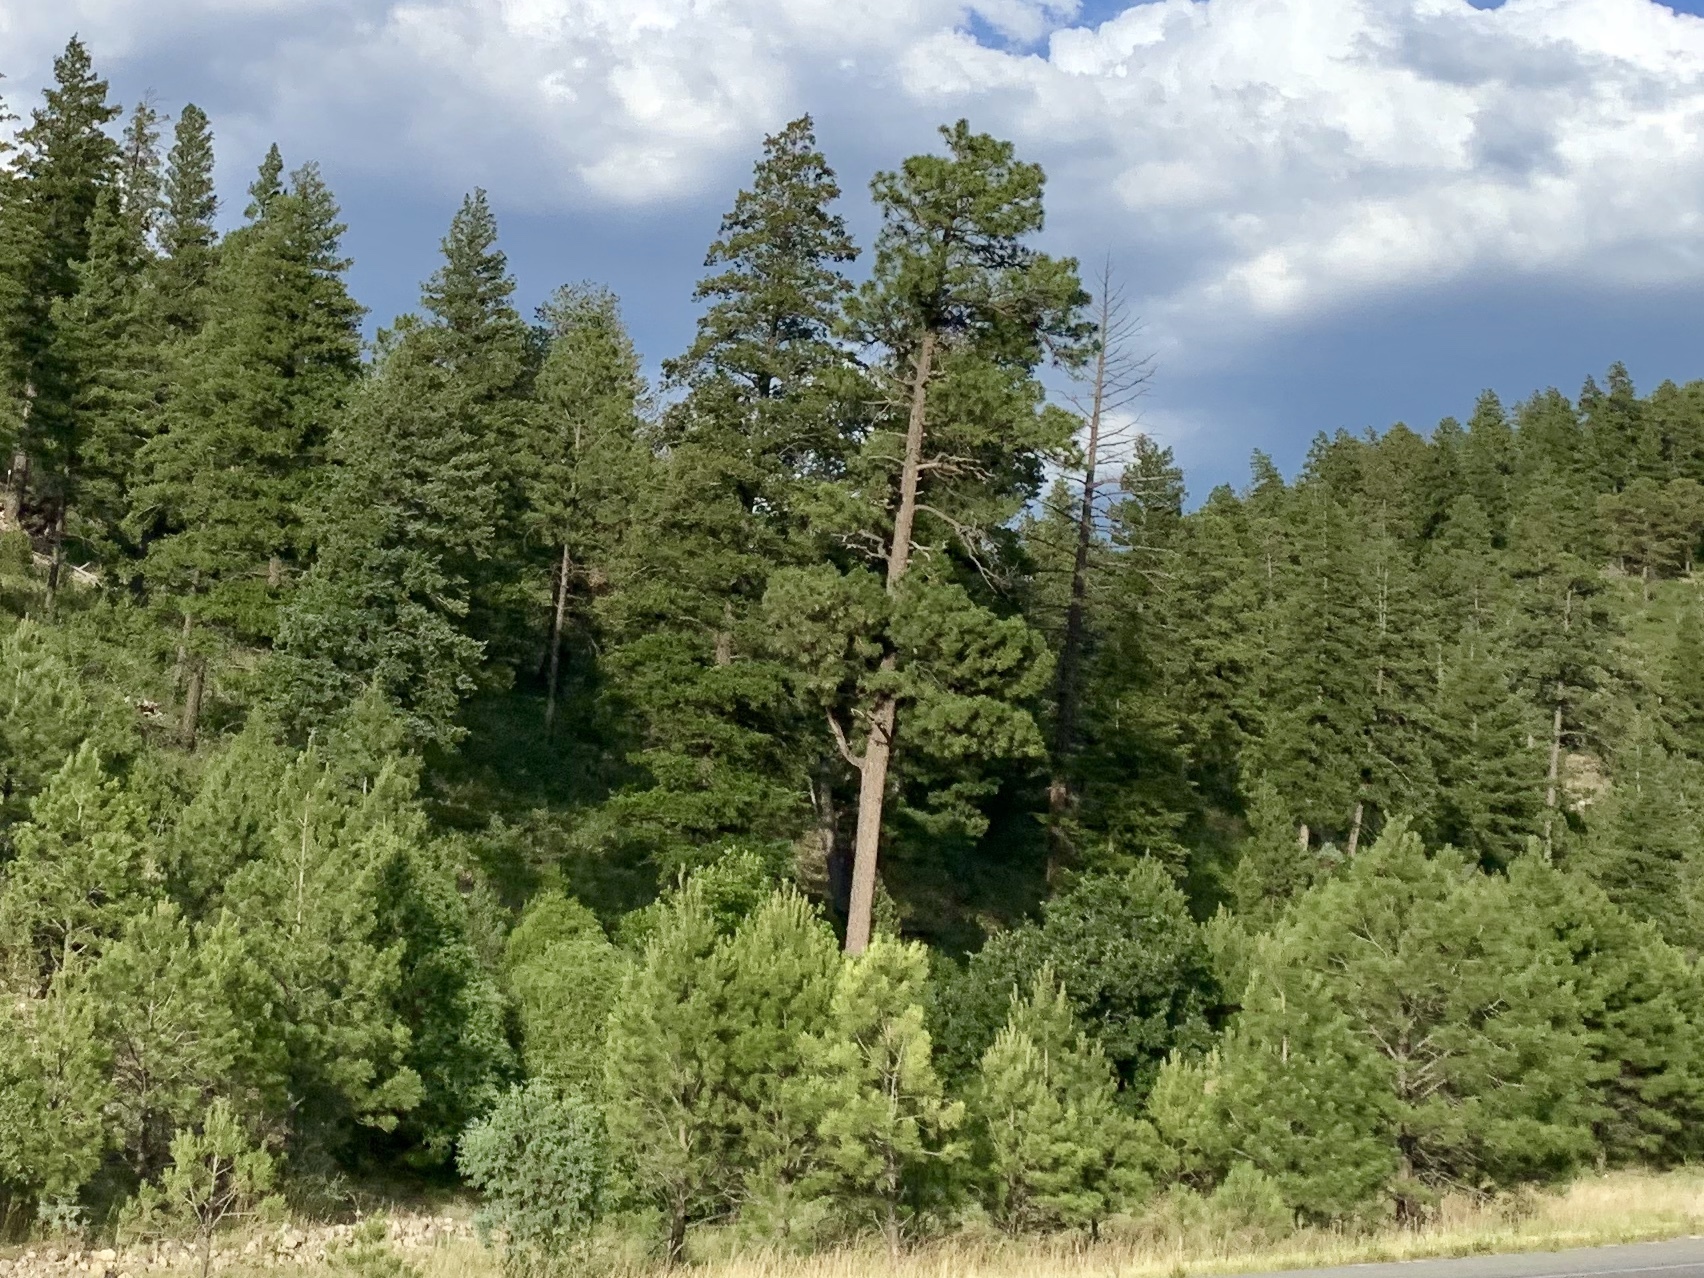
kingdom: Plantae
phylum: Tracheophyta
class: Pinopsida
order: Pinales
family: Pinaceae
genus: Pinus
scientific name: Pinus ponderosa
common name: Western yellow-pine
